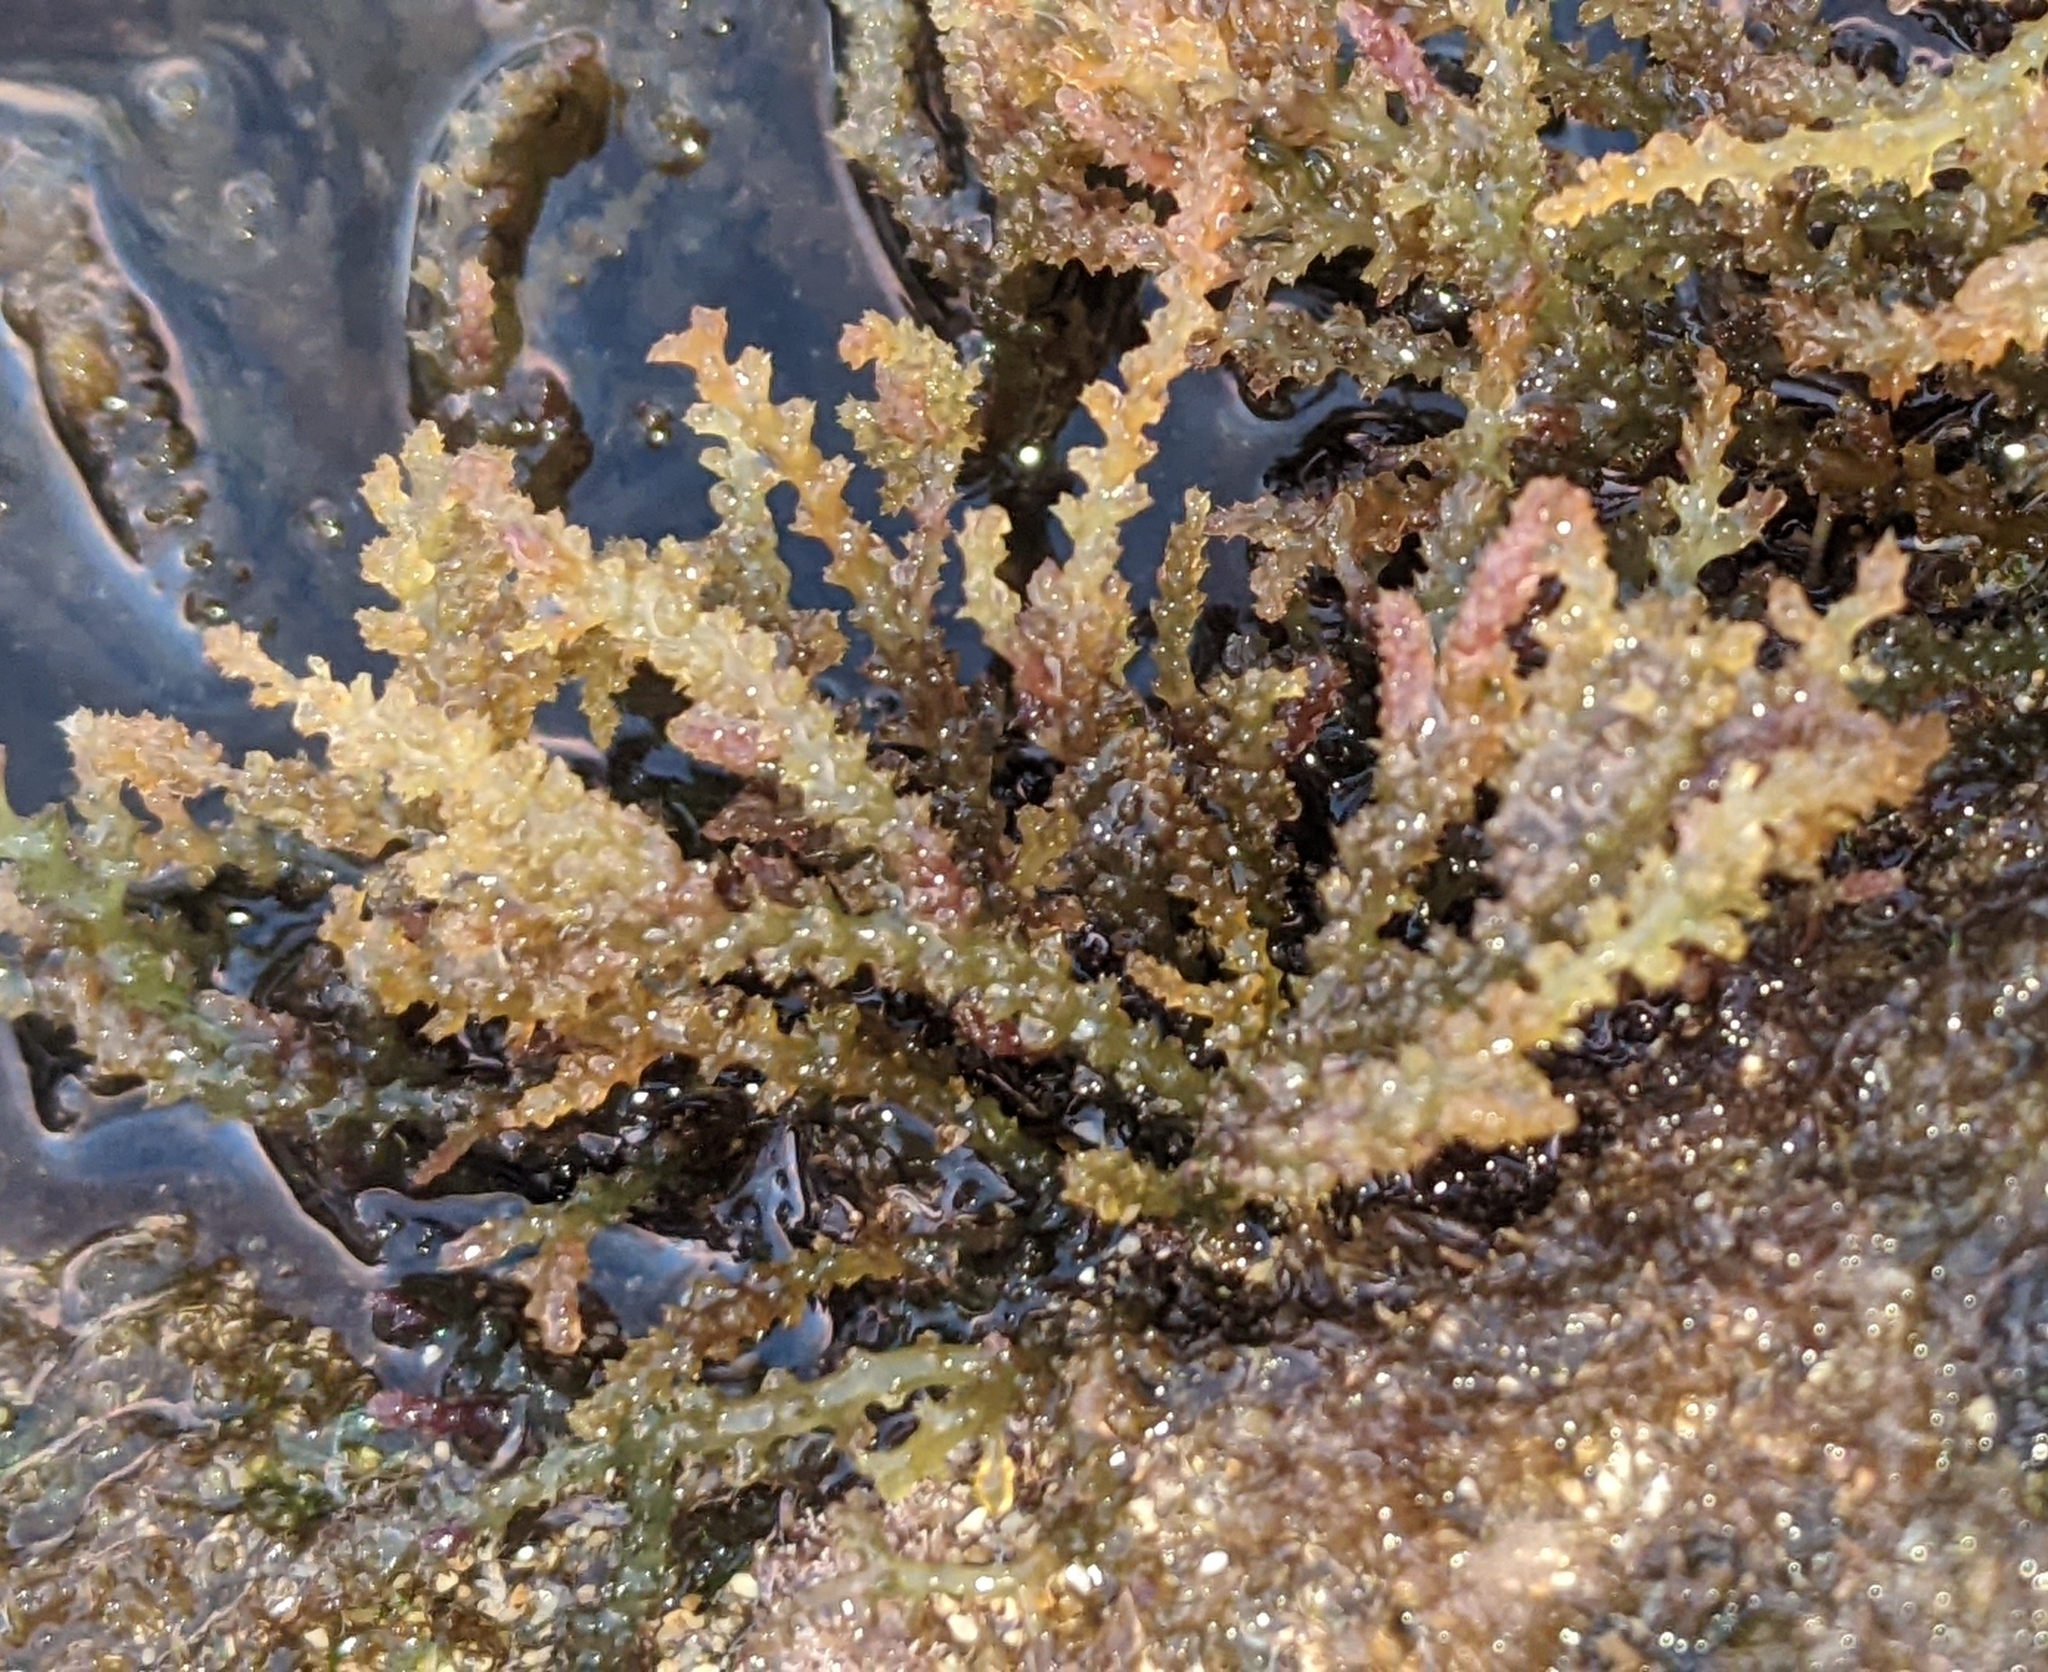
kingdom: Plantae
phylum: Rhodophyta
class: Florideophyceae
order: Ceramiales
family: Rhodomelaceae
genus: Acanthophora
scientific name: Acanthophora spicifera
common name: Red algae
